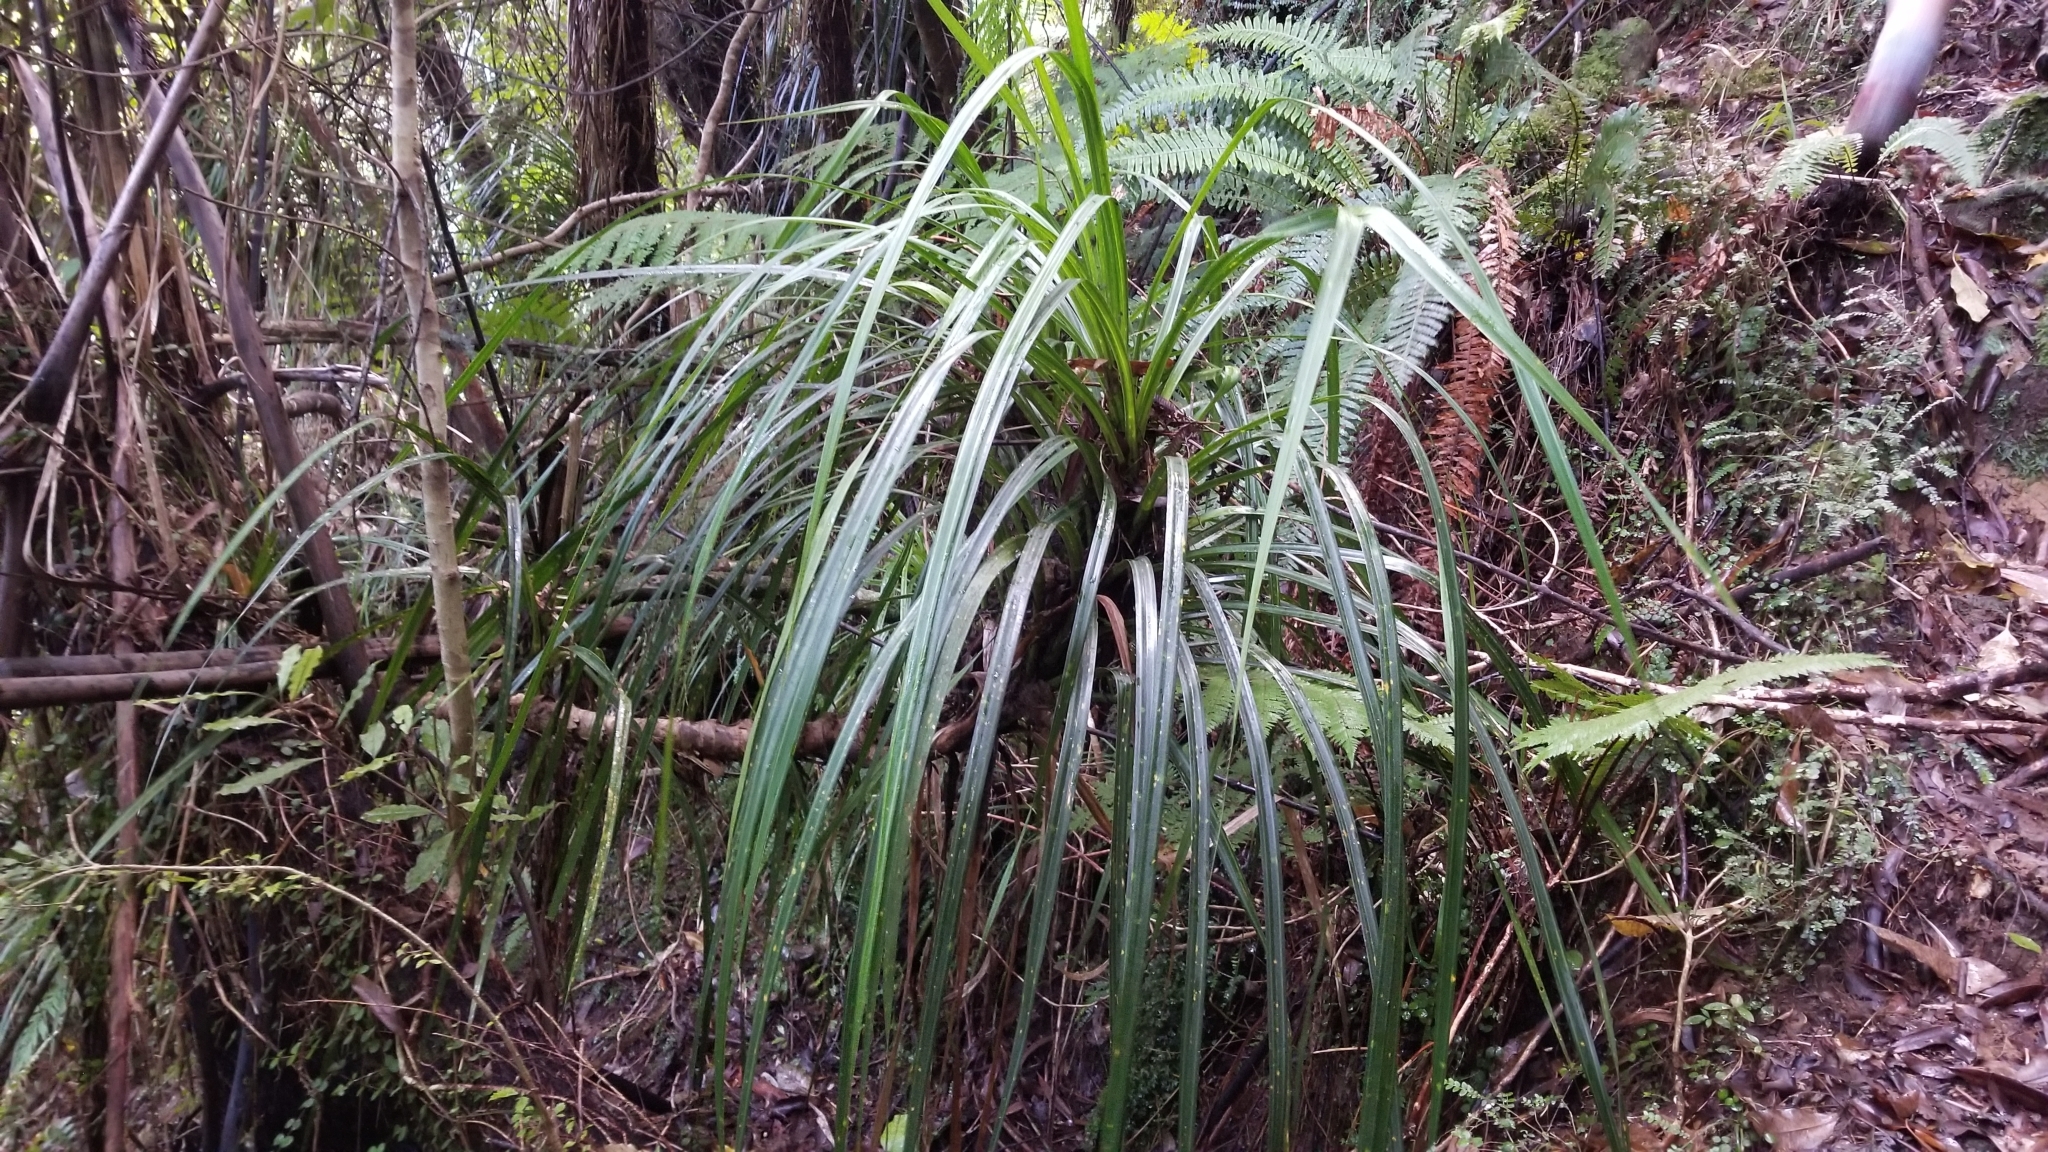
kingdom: Plantae
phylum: Tracheophyta
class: Liliopsida
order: Pandanales
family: Pandanaceae
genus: Freycinetia
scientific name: Freycinetia banksii
